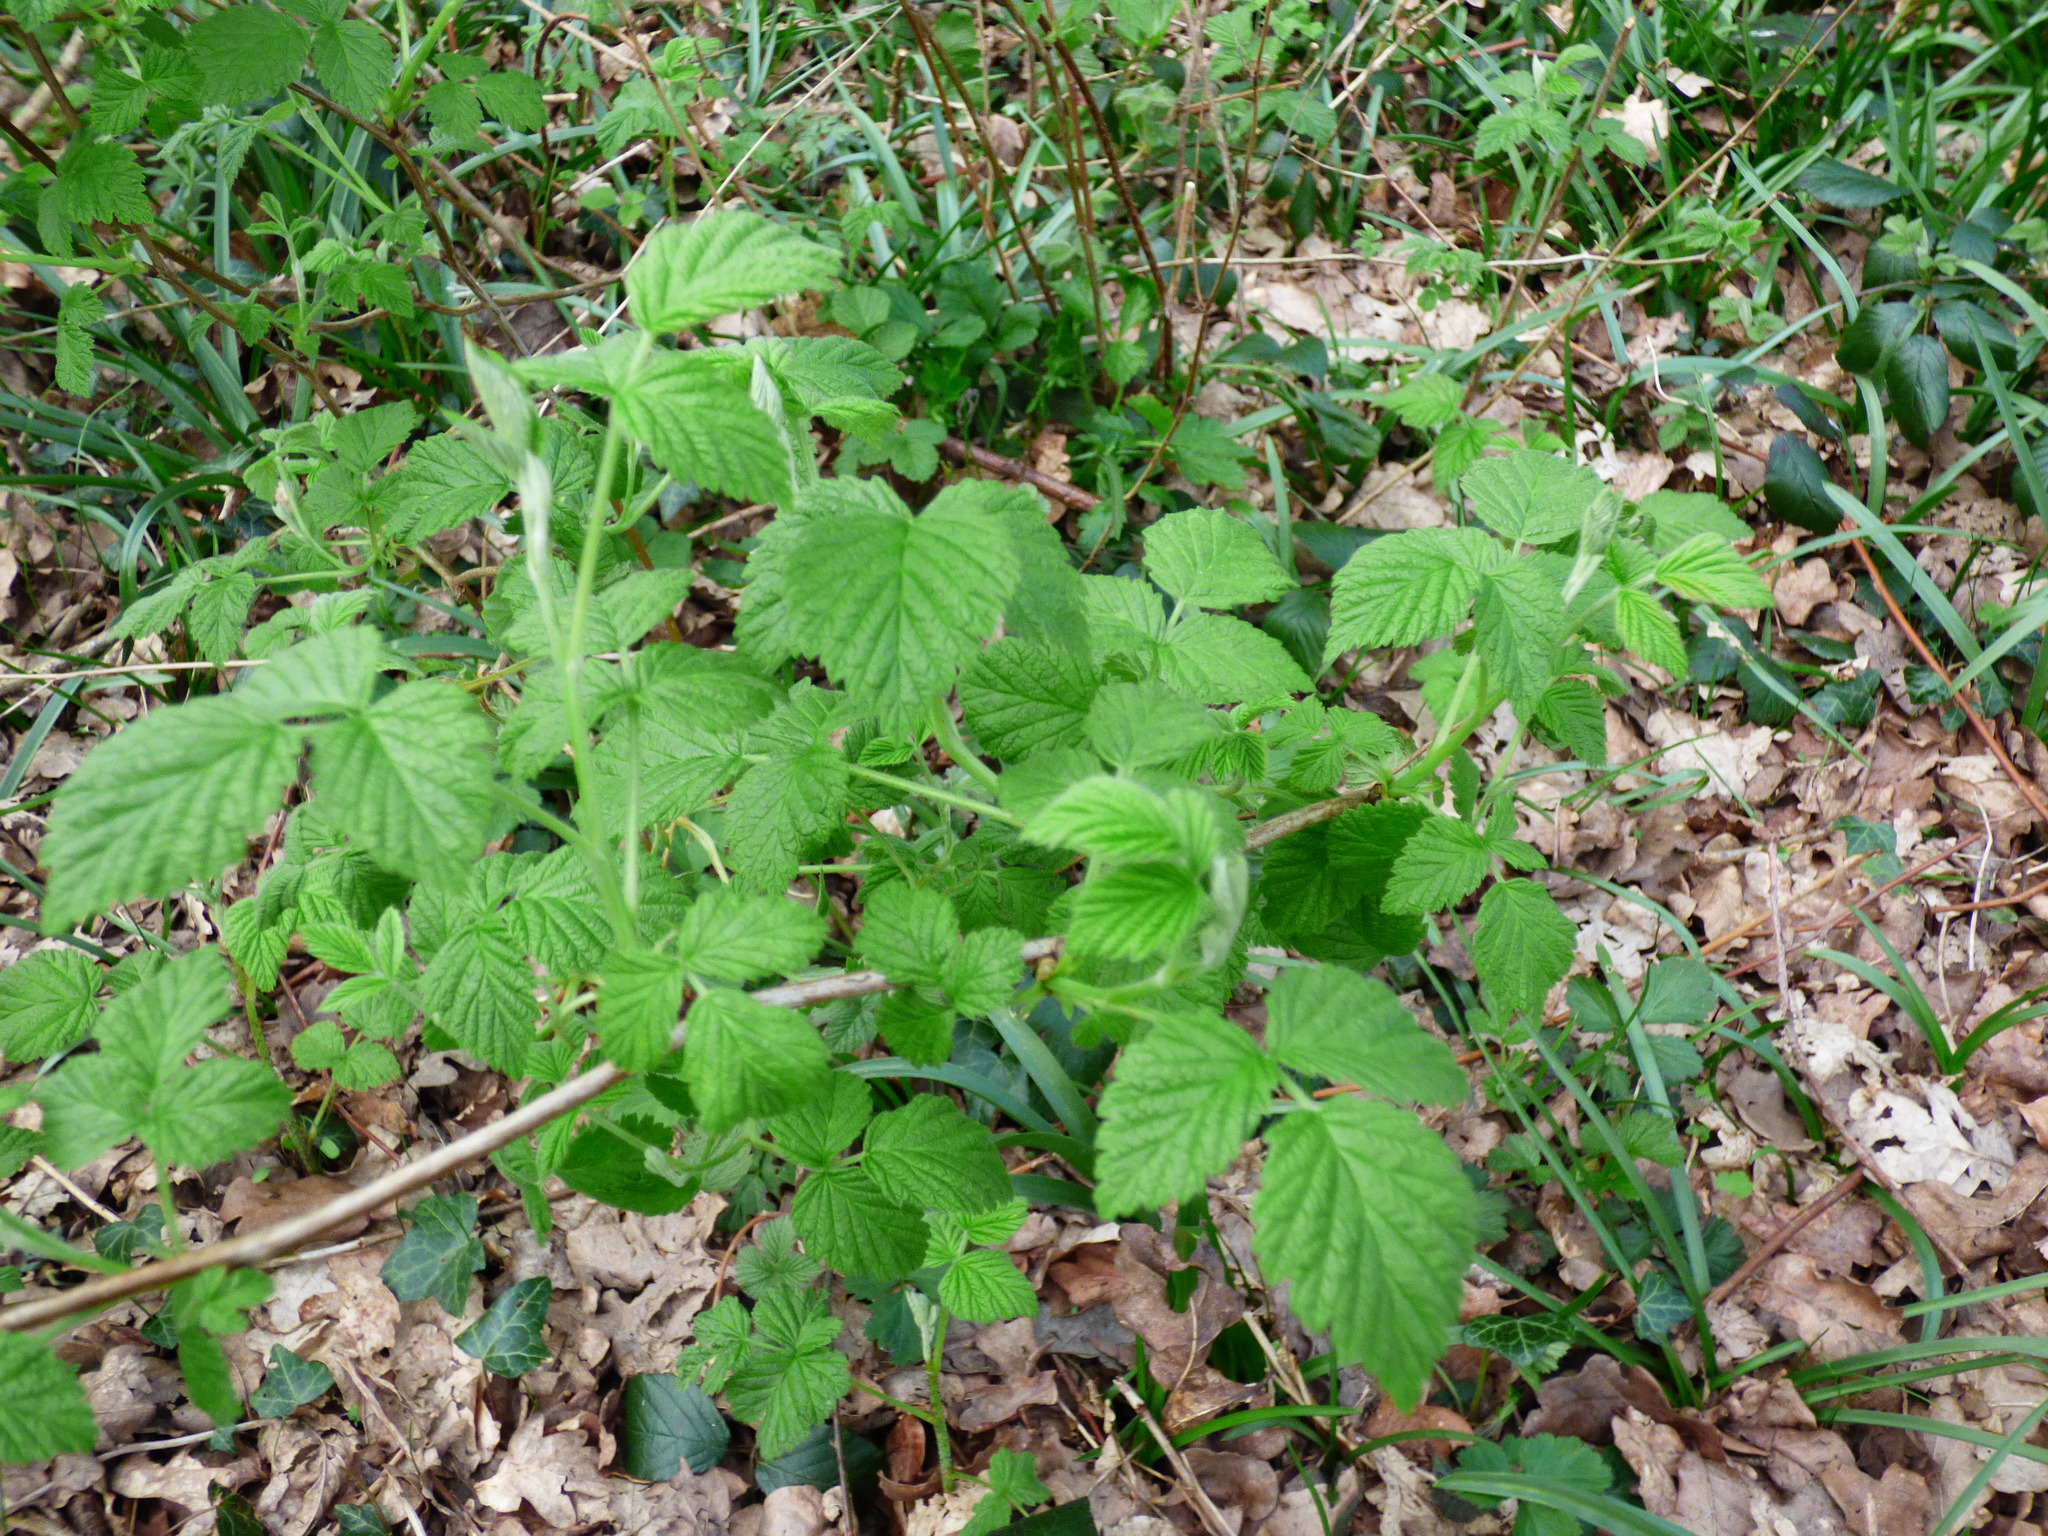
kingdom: Plantae
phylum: Tracheophyta
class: Magnoliopsida
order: Rosales
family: Rosaceae
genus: Rubus
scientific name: Rubus idaeus
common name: Raspberry
